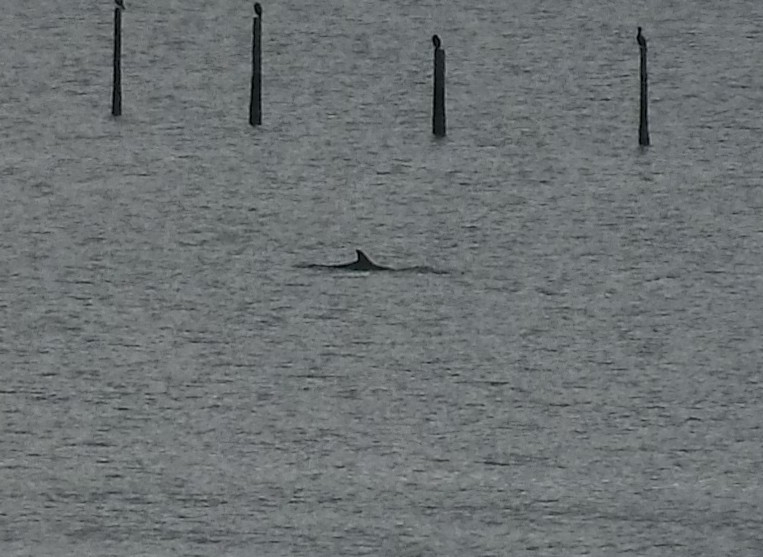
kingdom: Animalia
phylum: Chordata
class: Mammalia
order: Cetacea
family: Delphinidae
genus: Tursiops
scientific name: Tursiops truncatus
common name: Bottlenose dolphin
